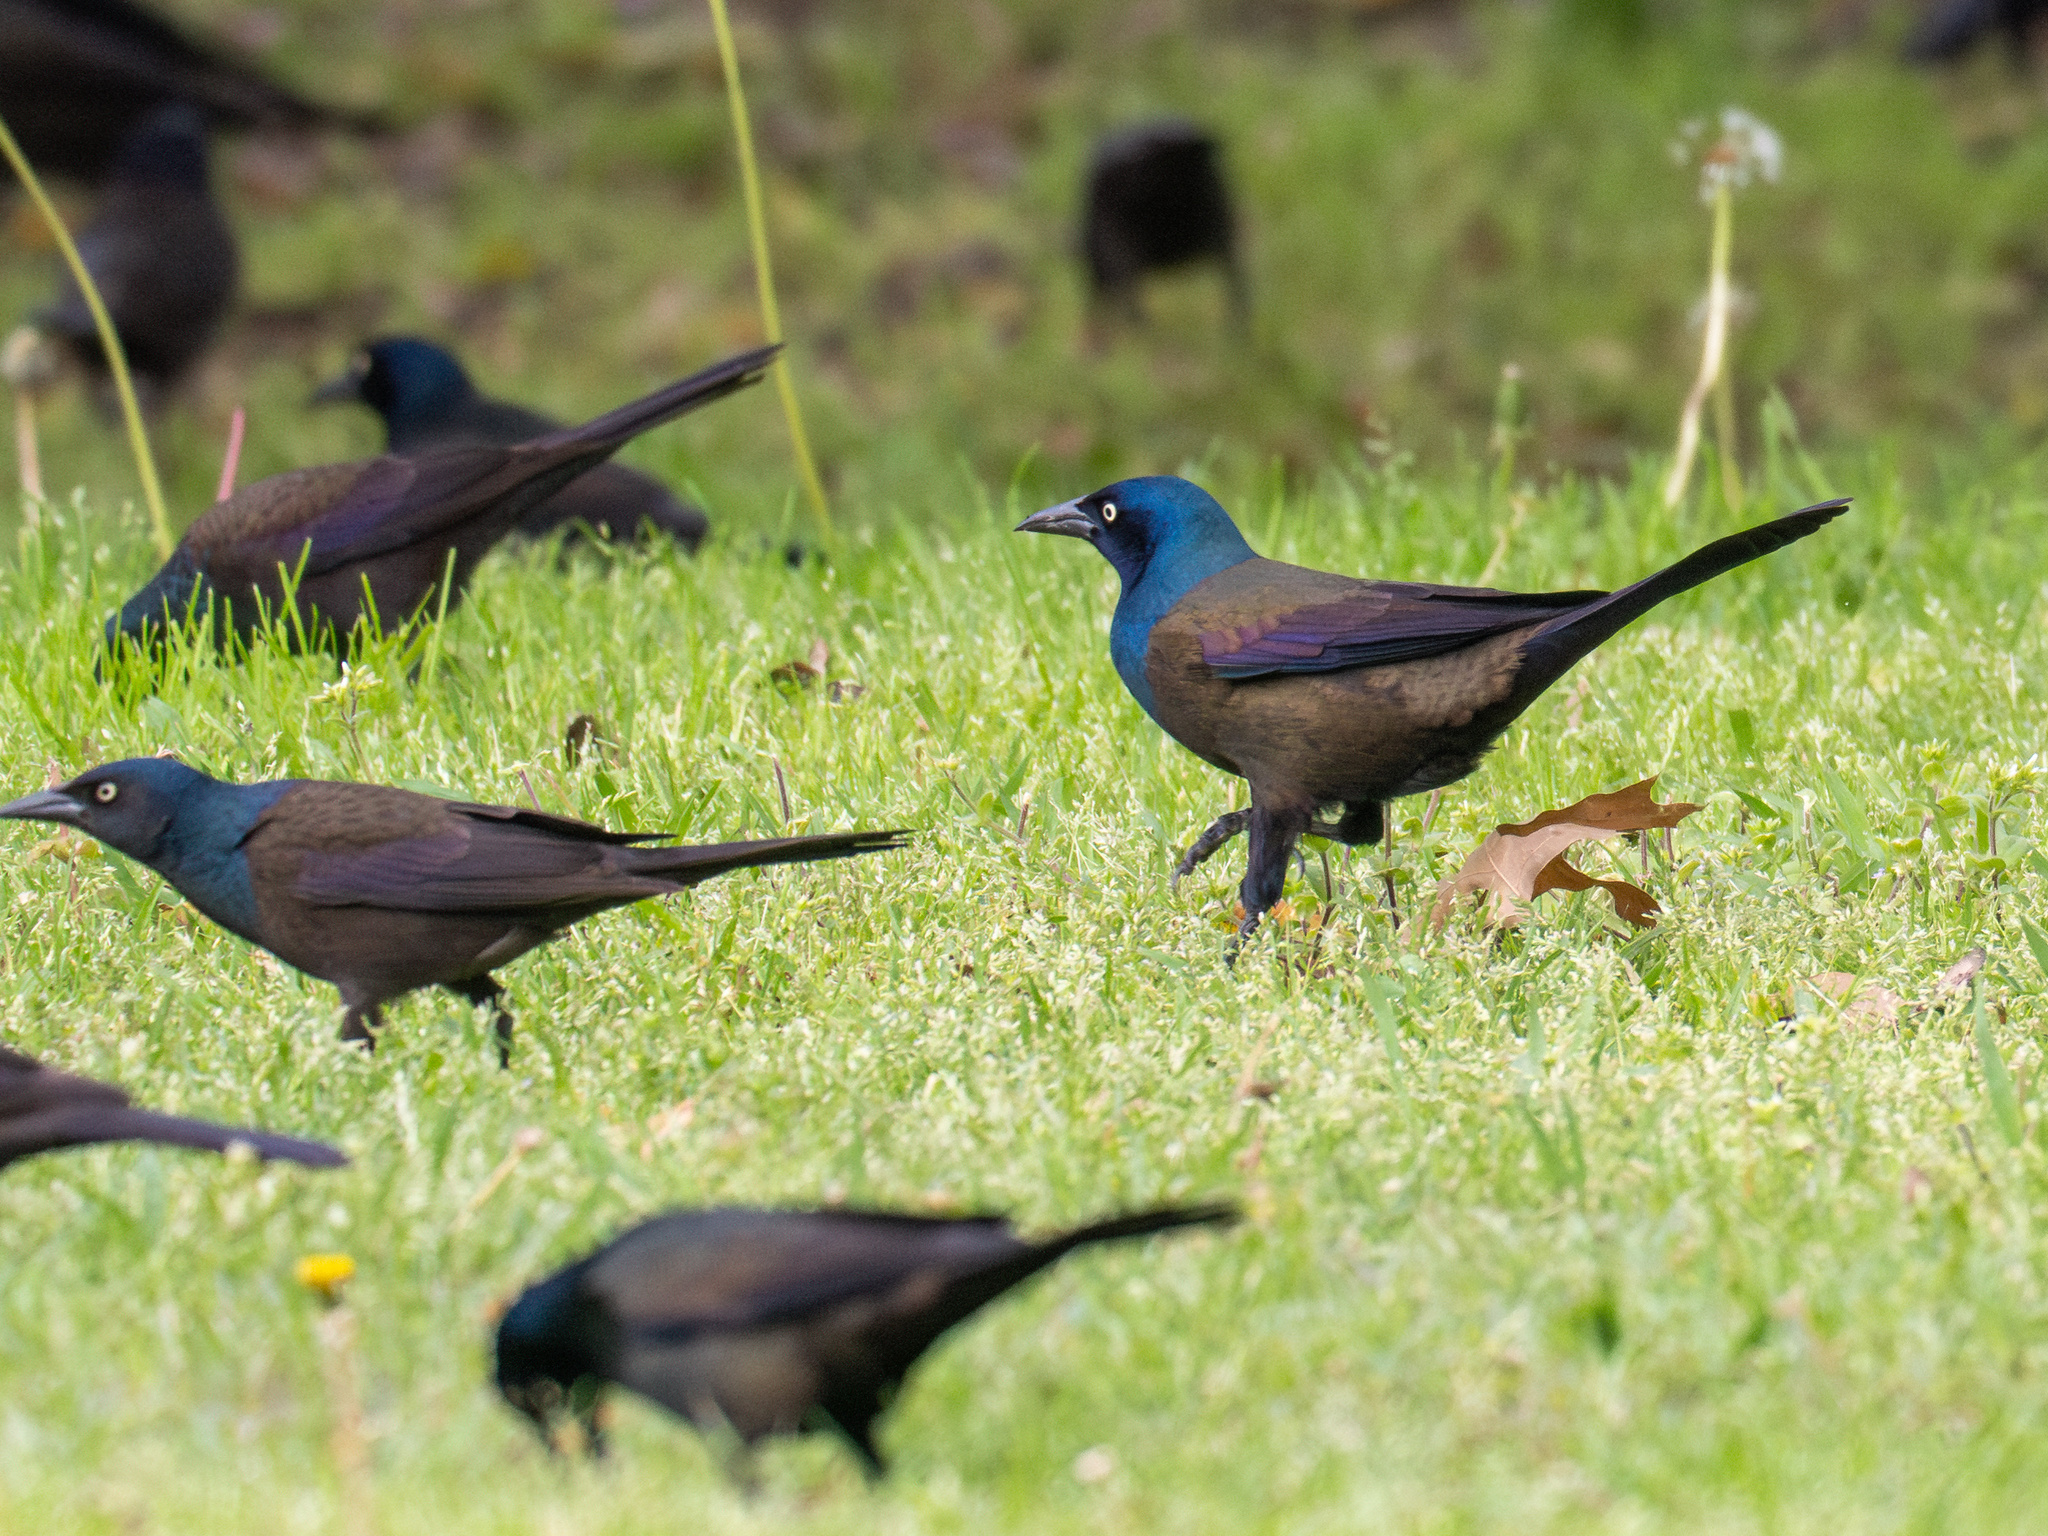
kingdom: Animalia
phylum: Chordata
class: Aves
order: Passeriformes
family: Icteridae
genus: Quiscalus
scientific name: Quiscalus quiscula
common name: Common grackle
